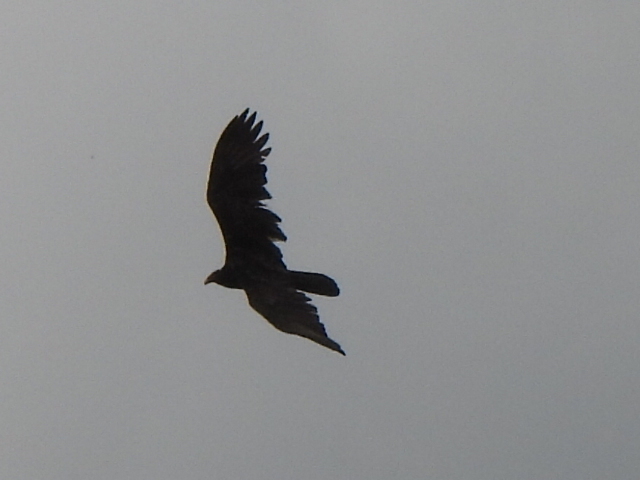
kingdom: Animalia
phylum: Chordata
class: Aves
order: Accipitriformes
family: Cathartidae
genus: Cathartes
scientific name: Cathartes aura
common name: Turkey vulture
